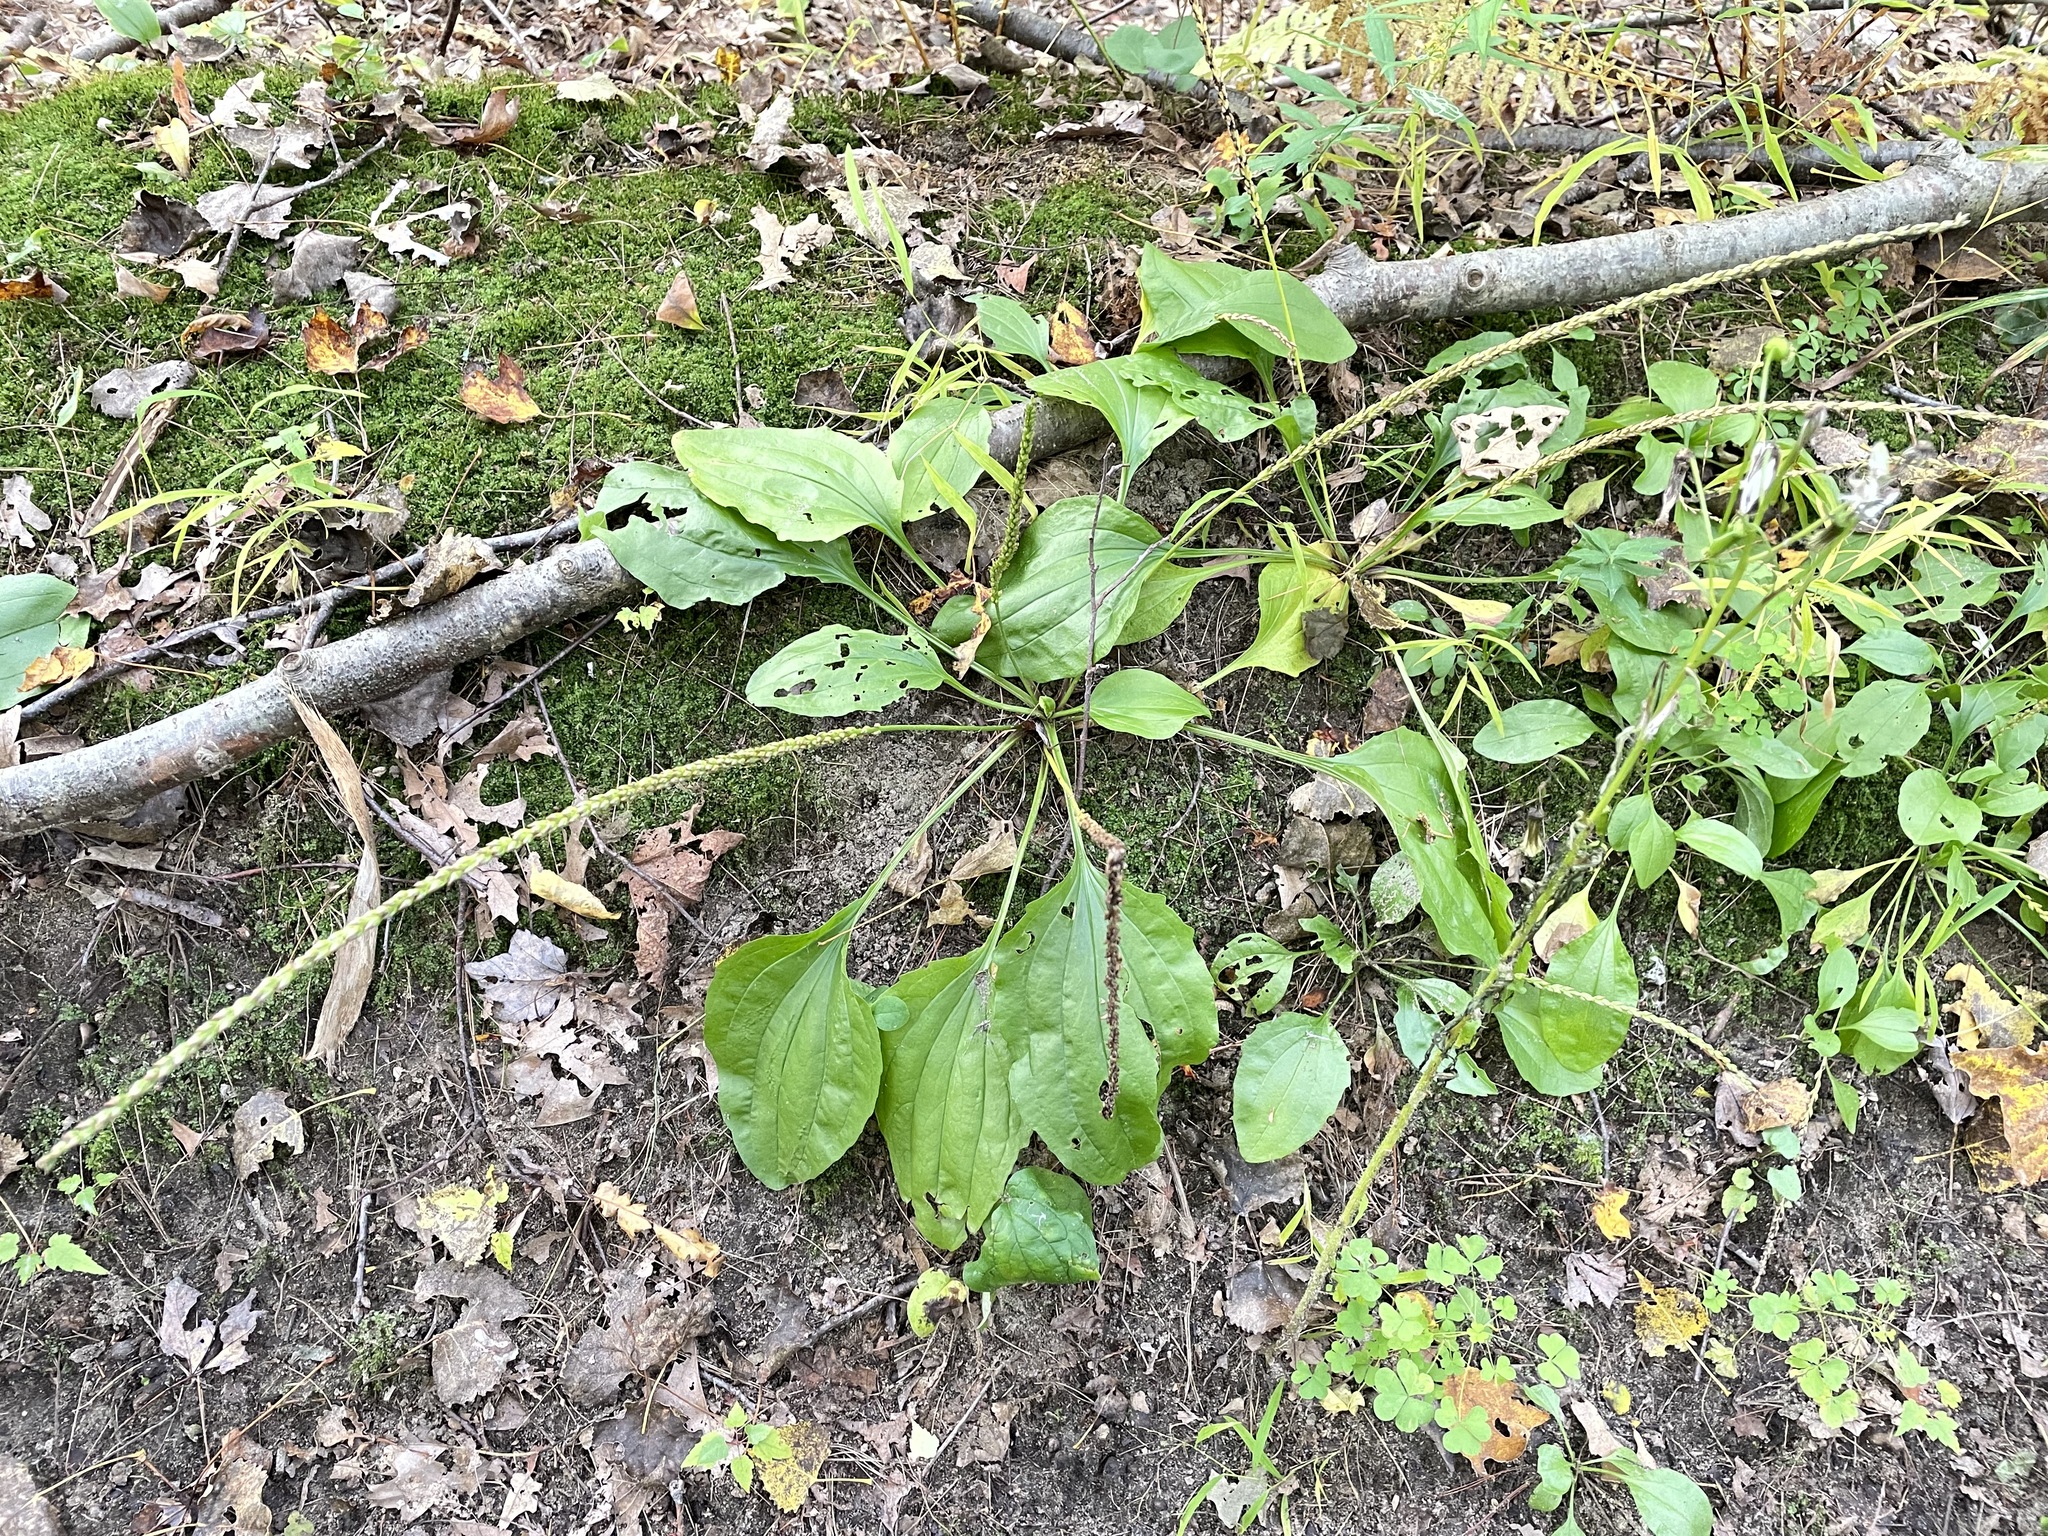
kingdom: Plantae
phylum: Tracheophyta
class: Magnoliopsida
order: Lamiales
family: Plantaginaceae
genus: Plantago
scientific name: Plantago rugelii
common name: American plantain
